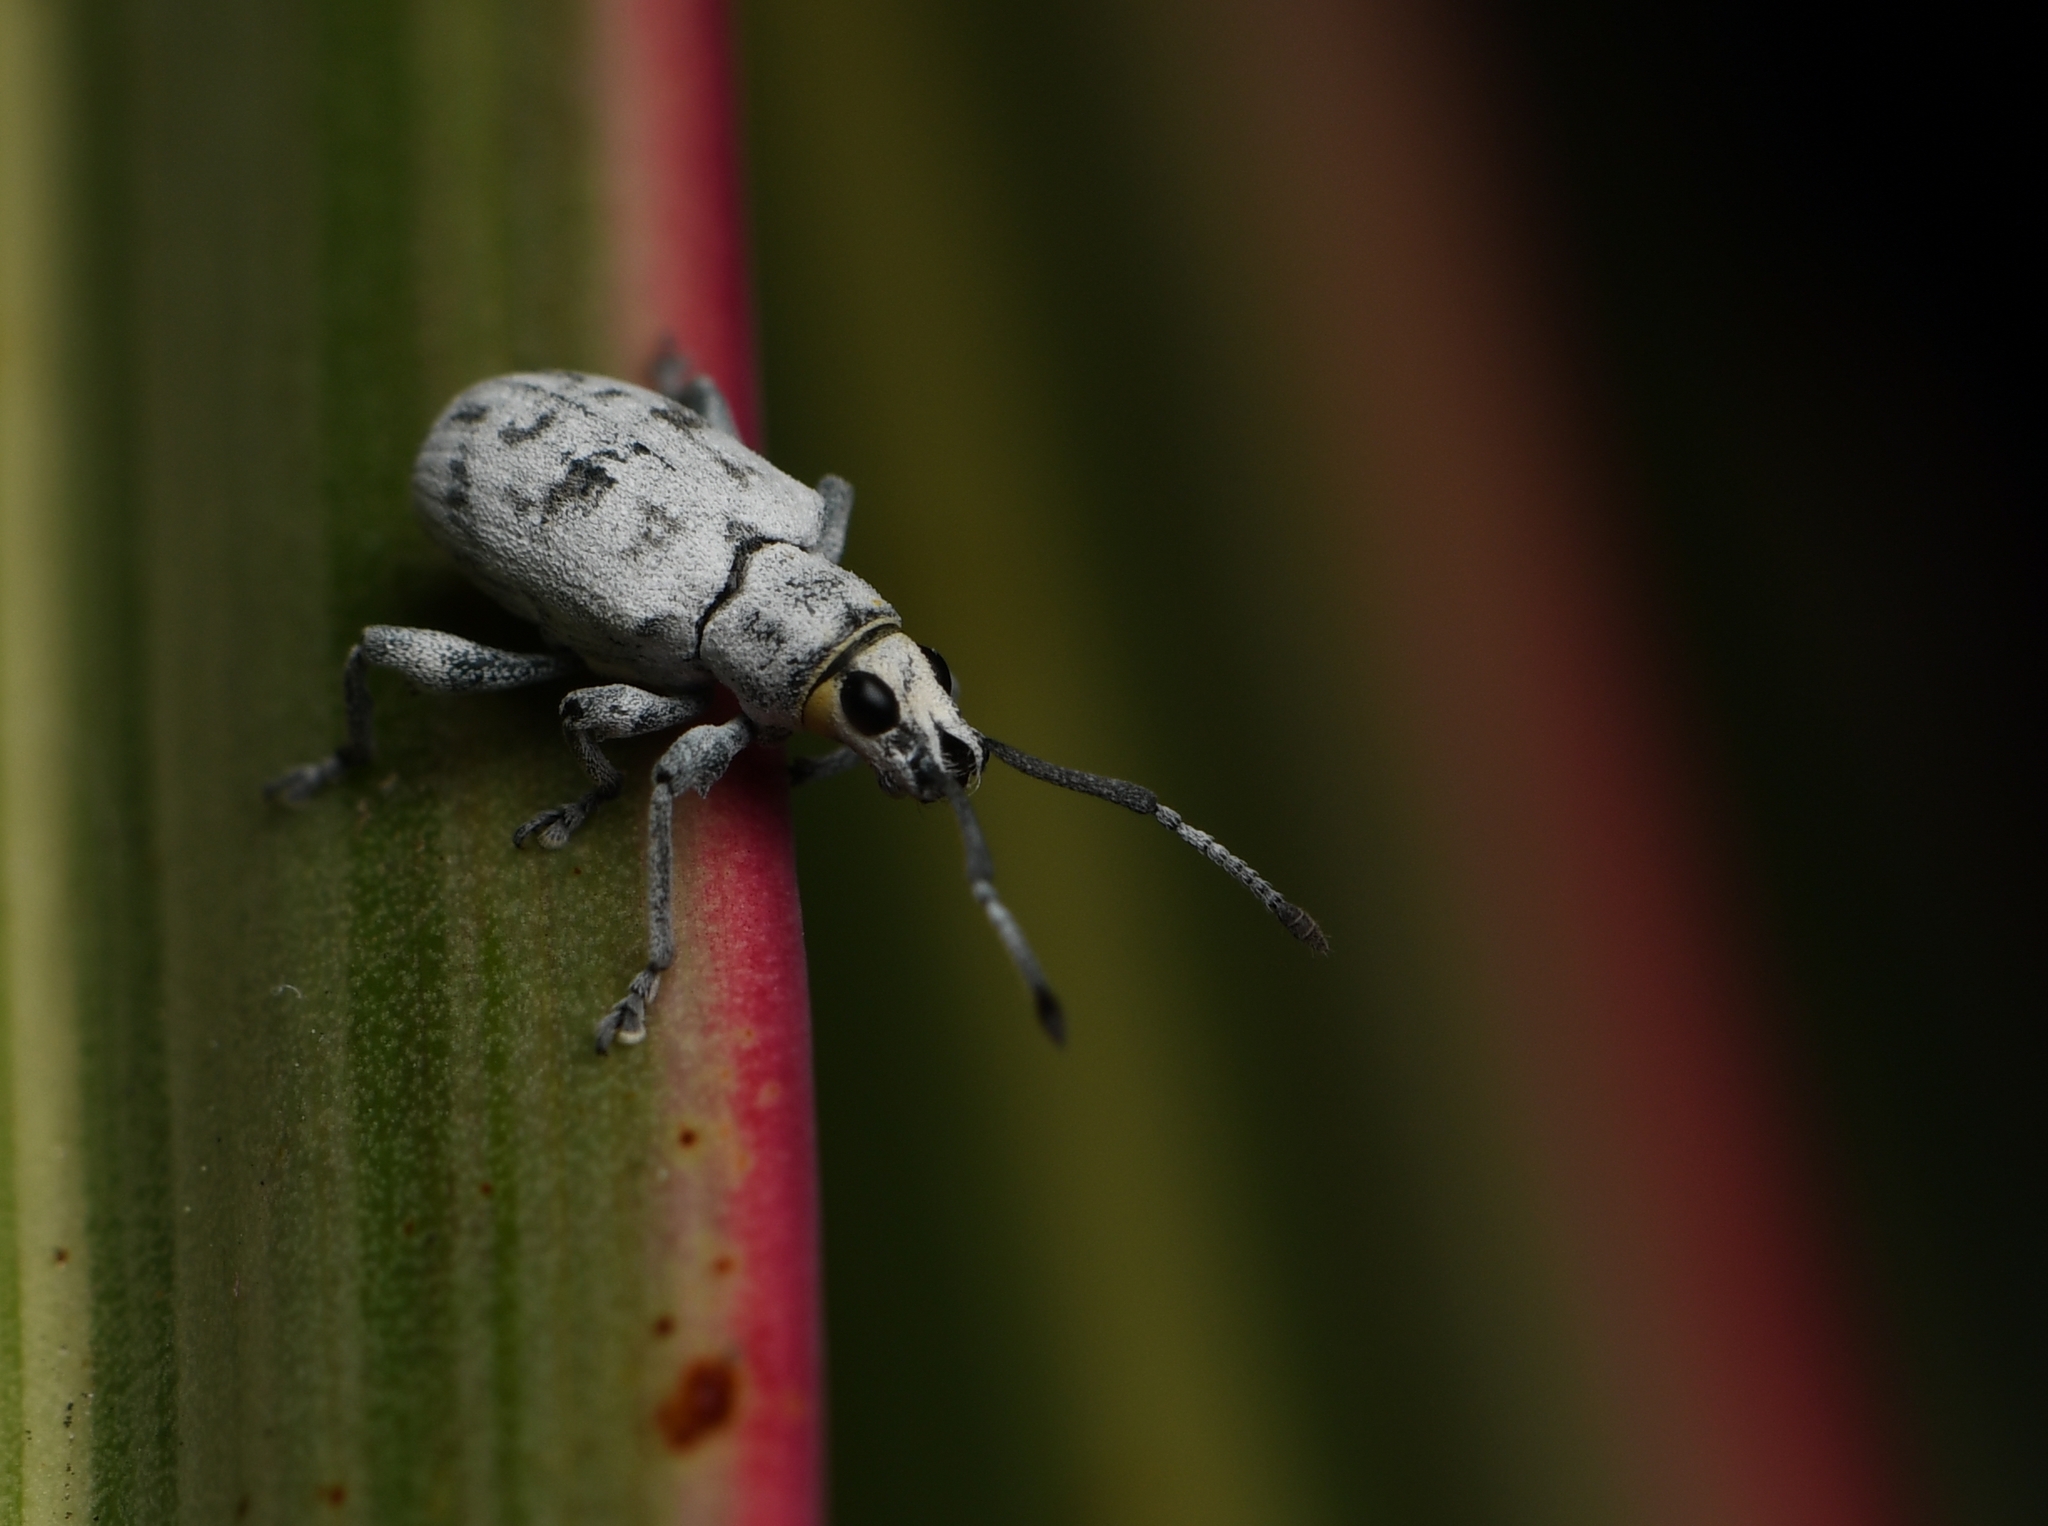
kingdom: Animalia
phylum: Arthropoda
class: Insecta
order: Coleoptera
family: Curculionidae
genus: Myllocerus
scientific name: Myllocerus undecimpustulatus
